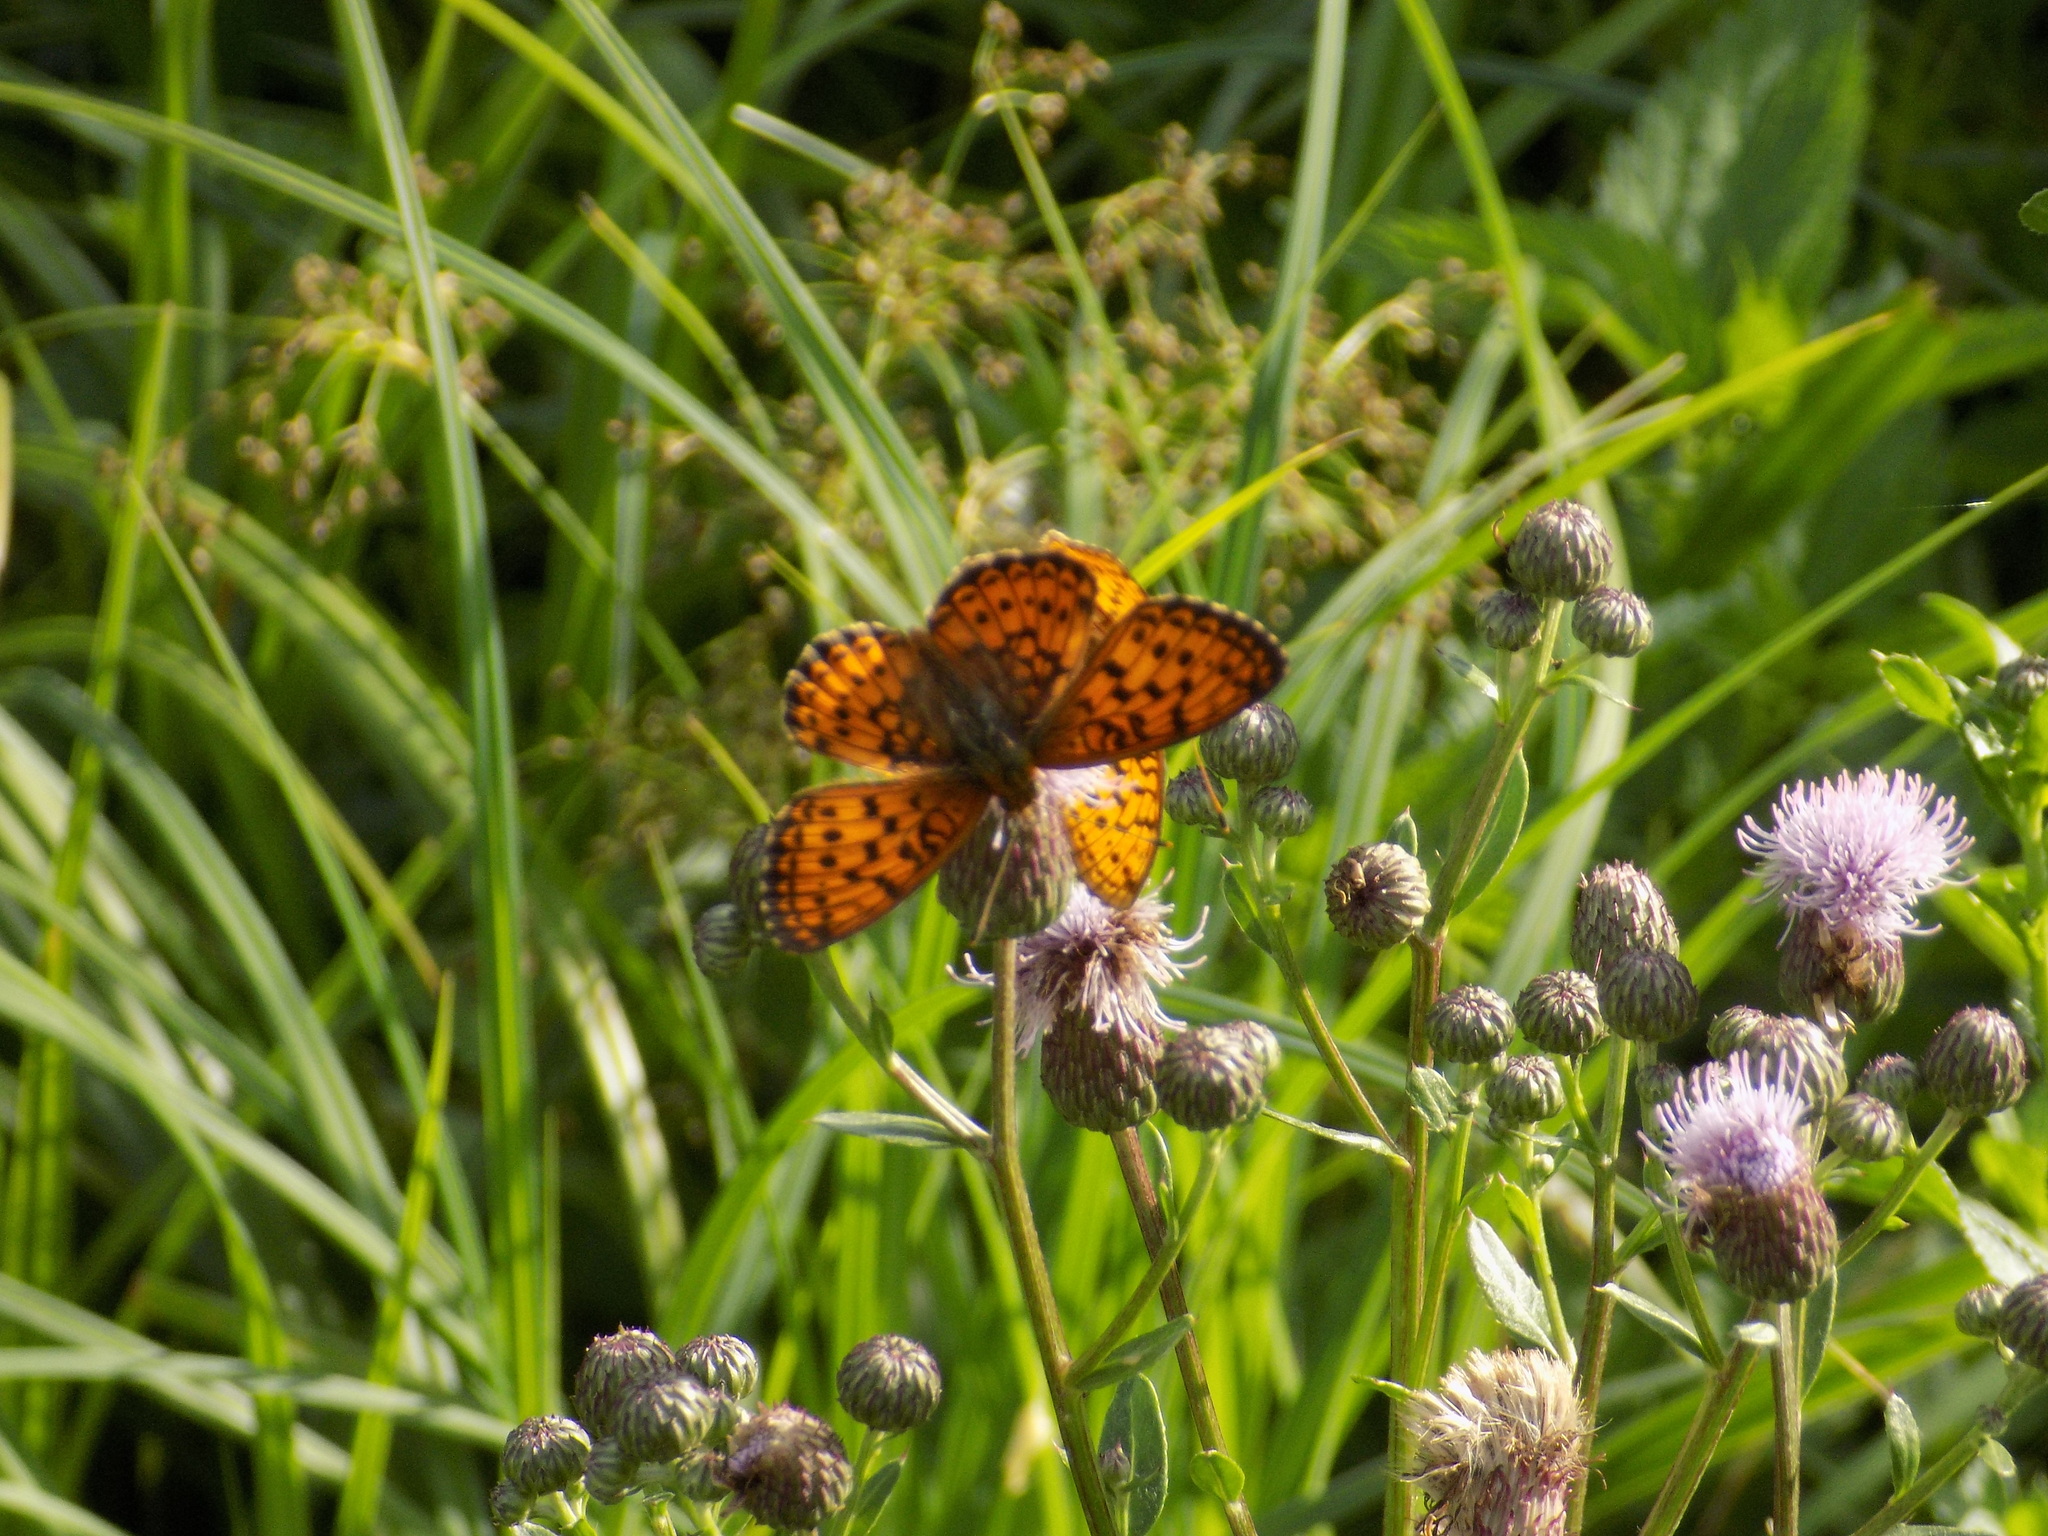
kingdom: Animalia
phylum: Arthropoda
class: Insecta
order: Lepidoptera
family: Nymphalidae
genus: Brenthis
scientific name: Brenthis ino
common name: Lesser marbled fritillary
